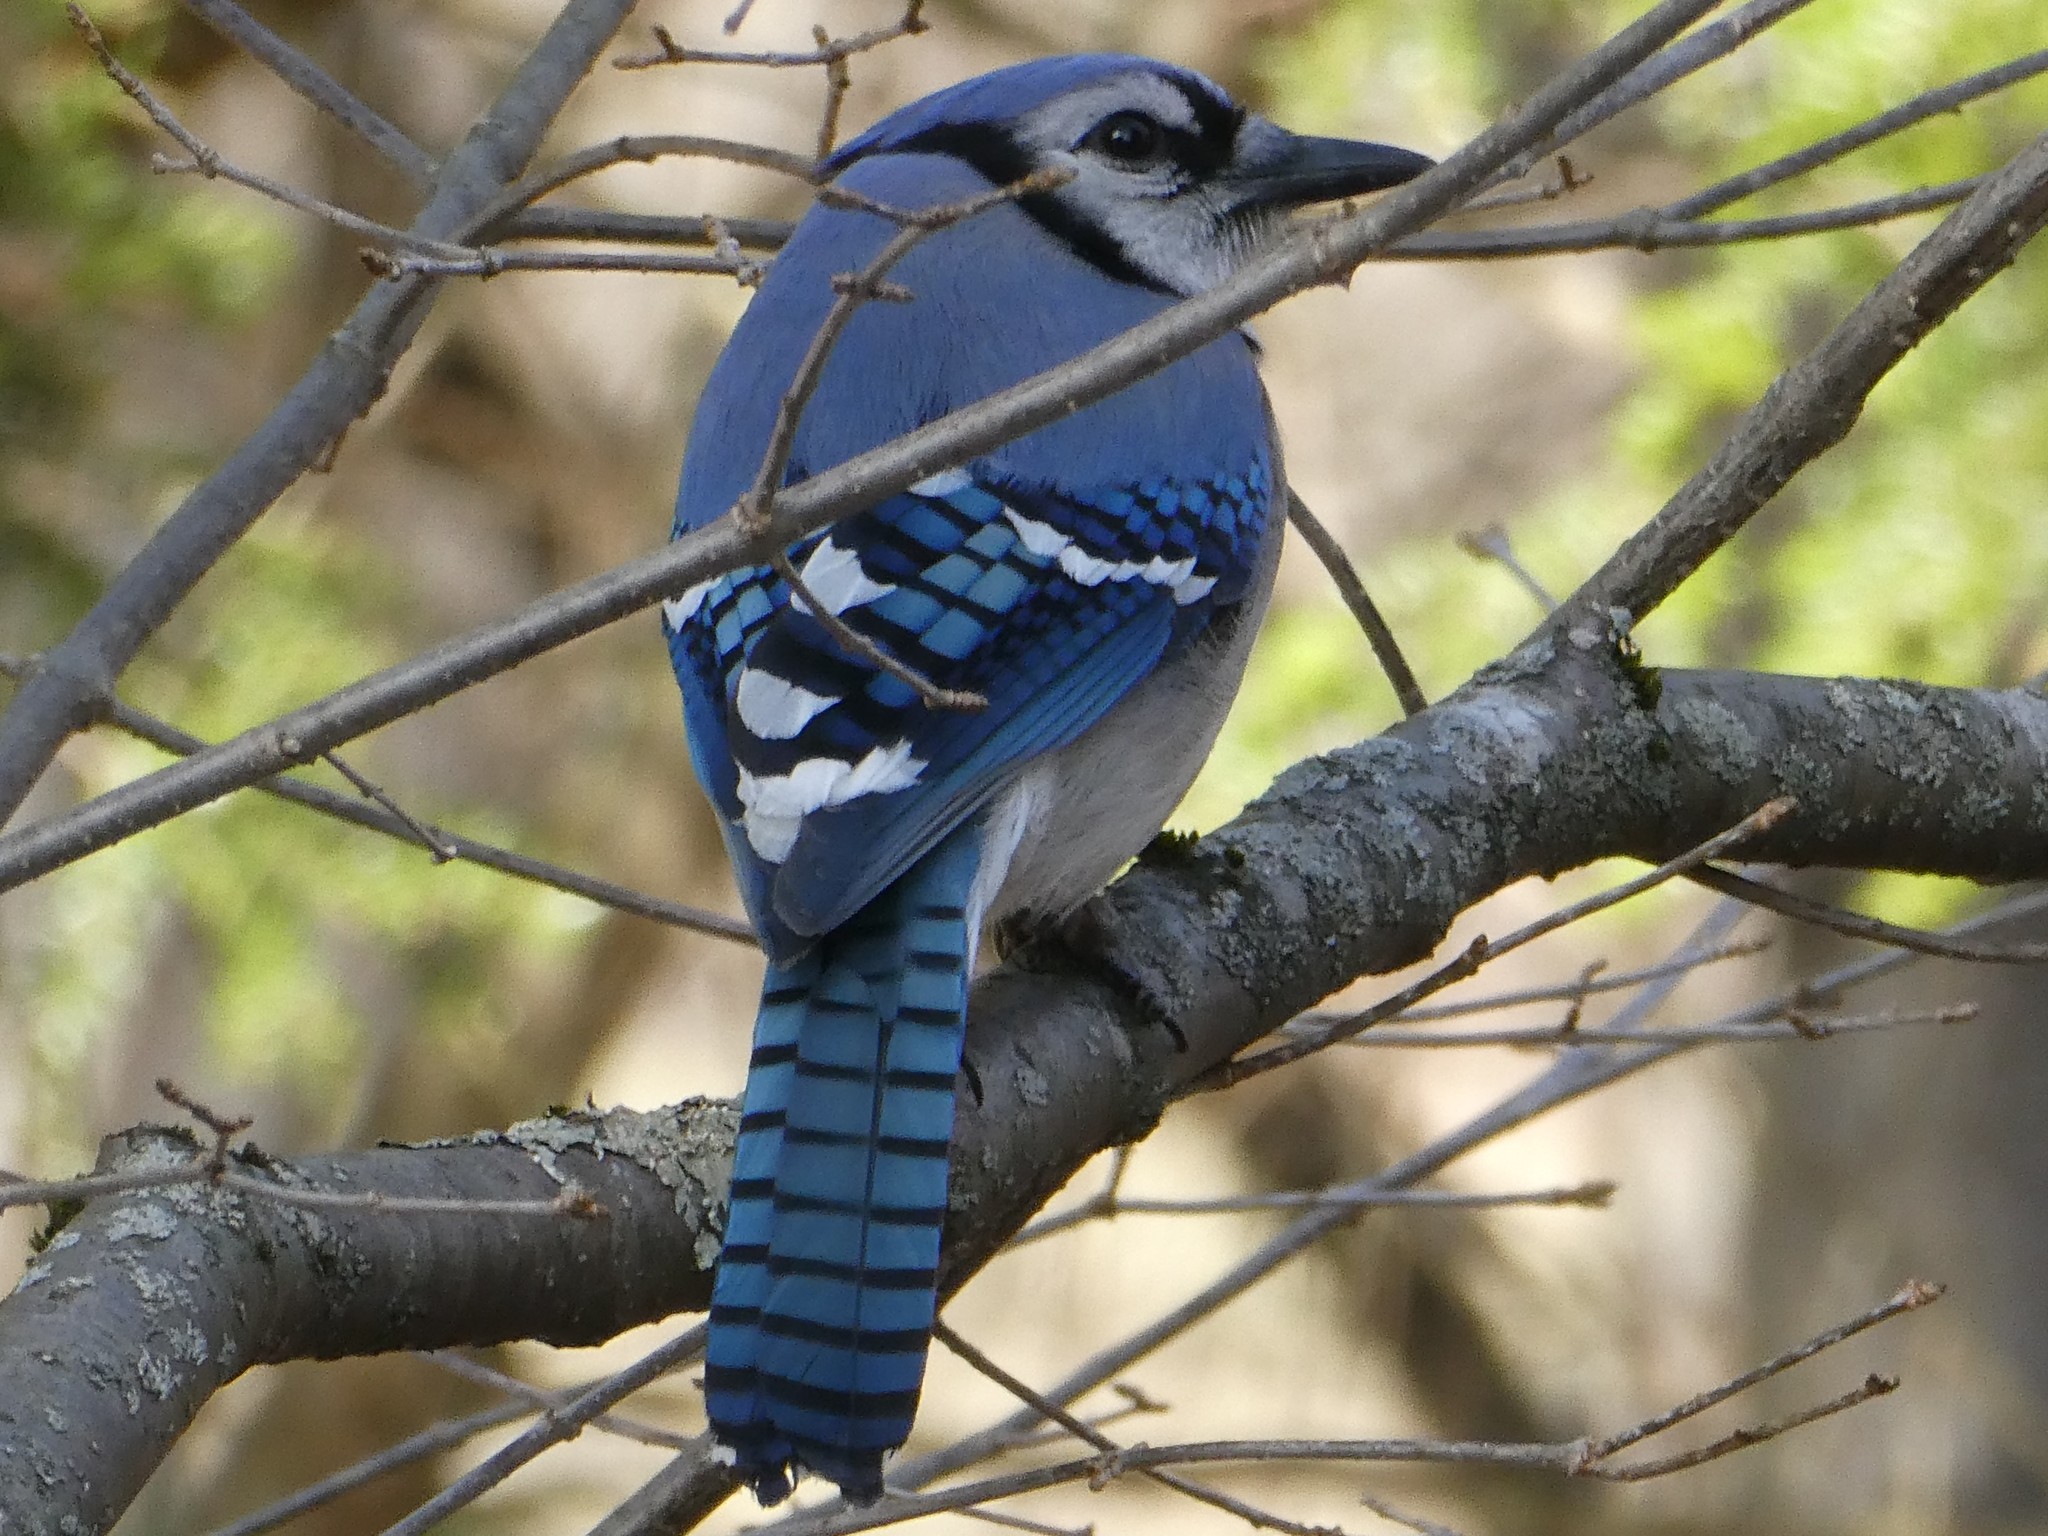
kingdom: Animalia
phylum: Chordata
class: Aves
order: Passeriformes
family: Corvidae
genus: Cyanocitta
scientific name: Cyanocitta cristata
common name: Blue jay
